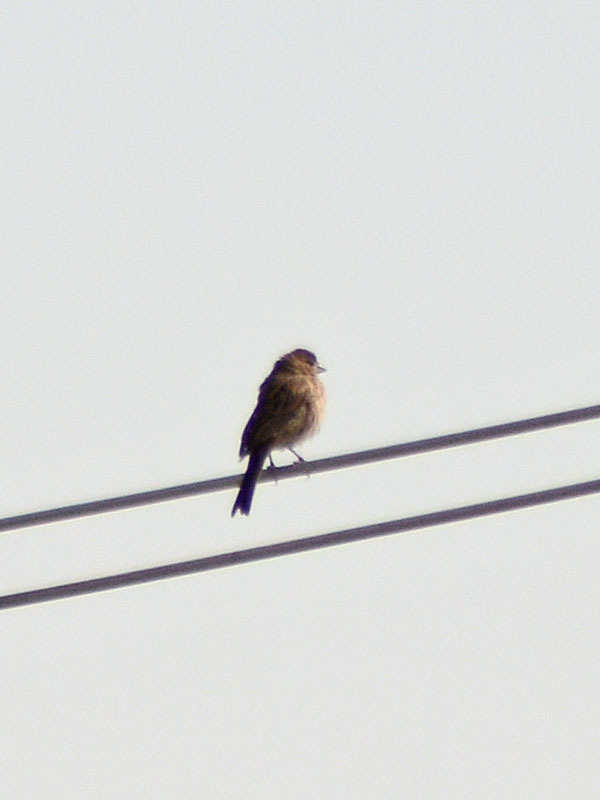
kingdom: Animalia
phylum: Chordata
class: Aves
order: Passeriformes
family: Fringillidae
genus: Haemorhous
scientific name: Haemorhous mexicanus
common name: House finch
